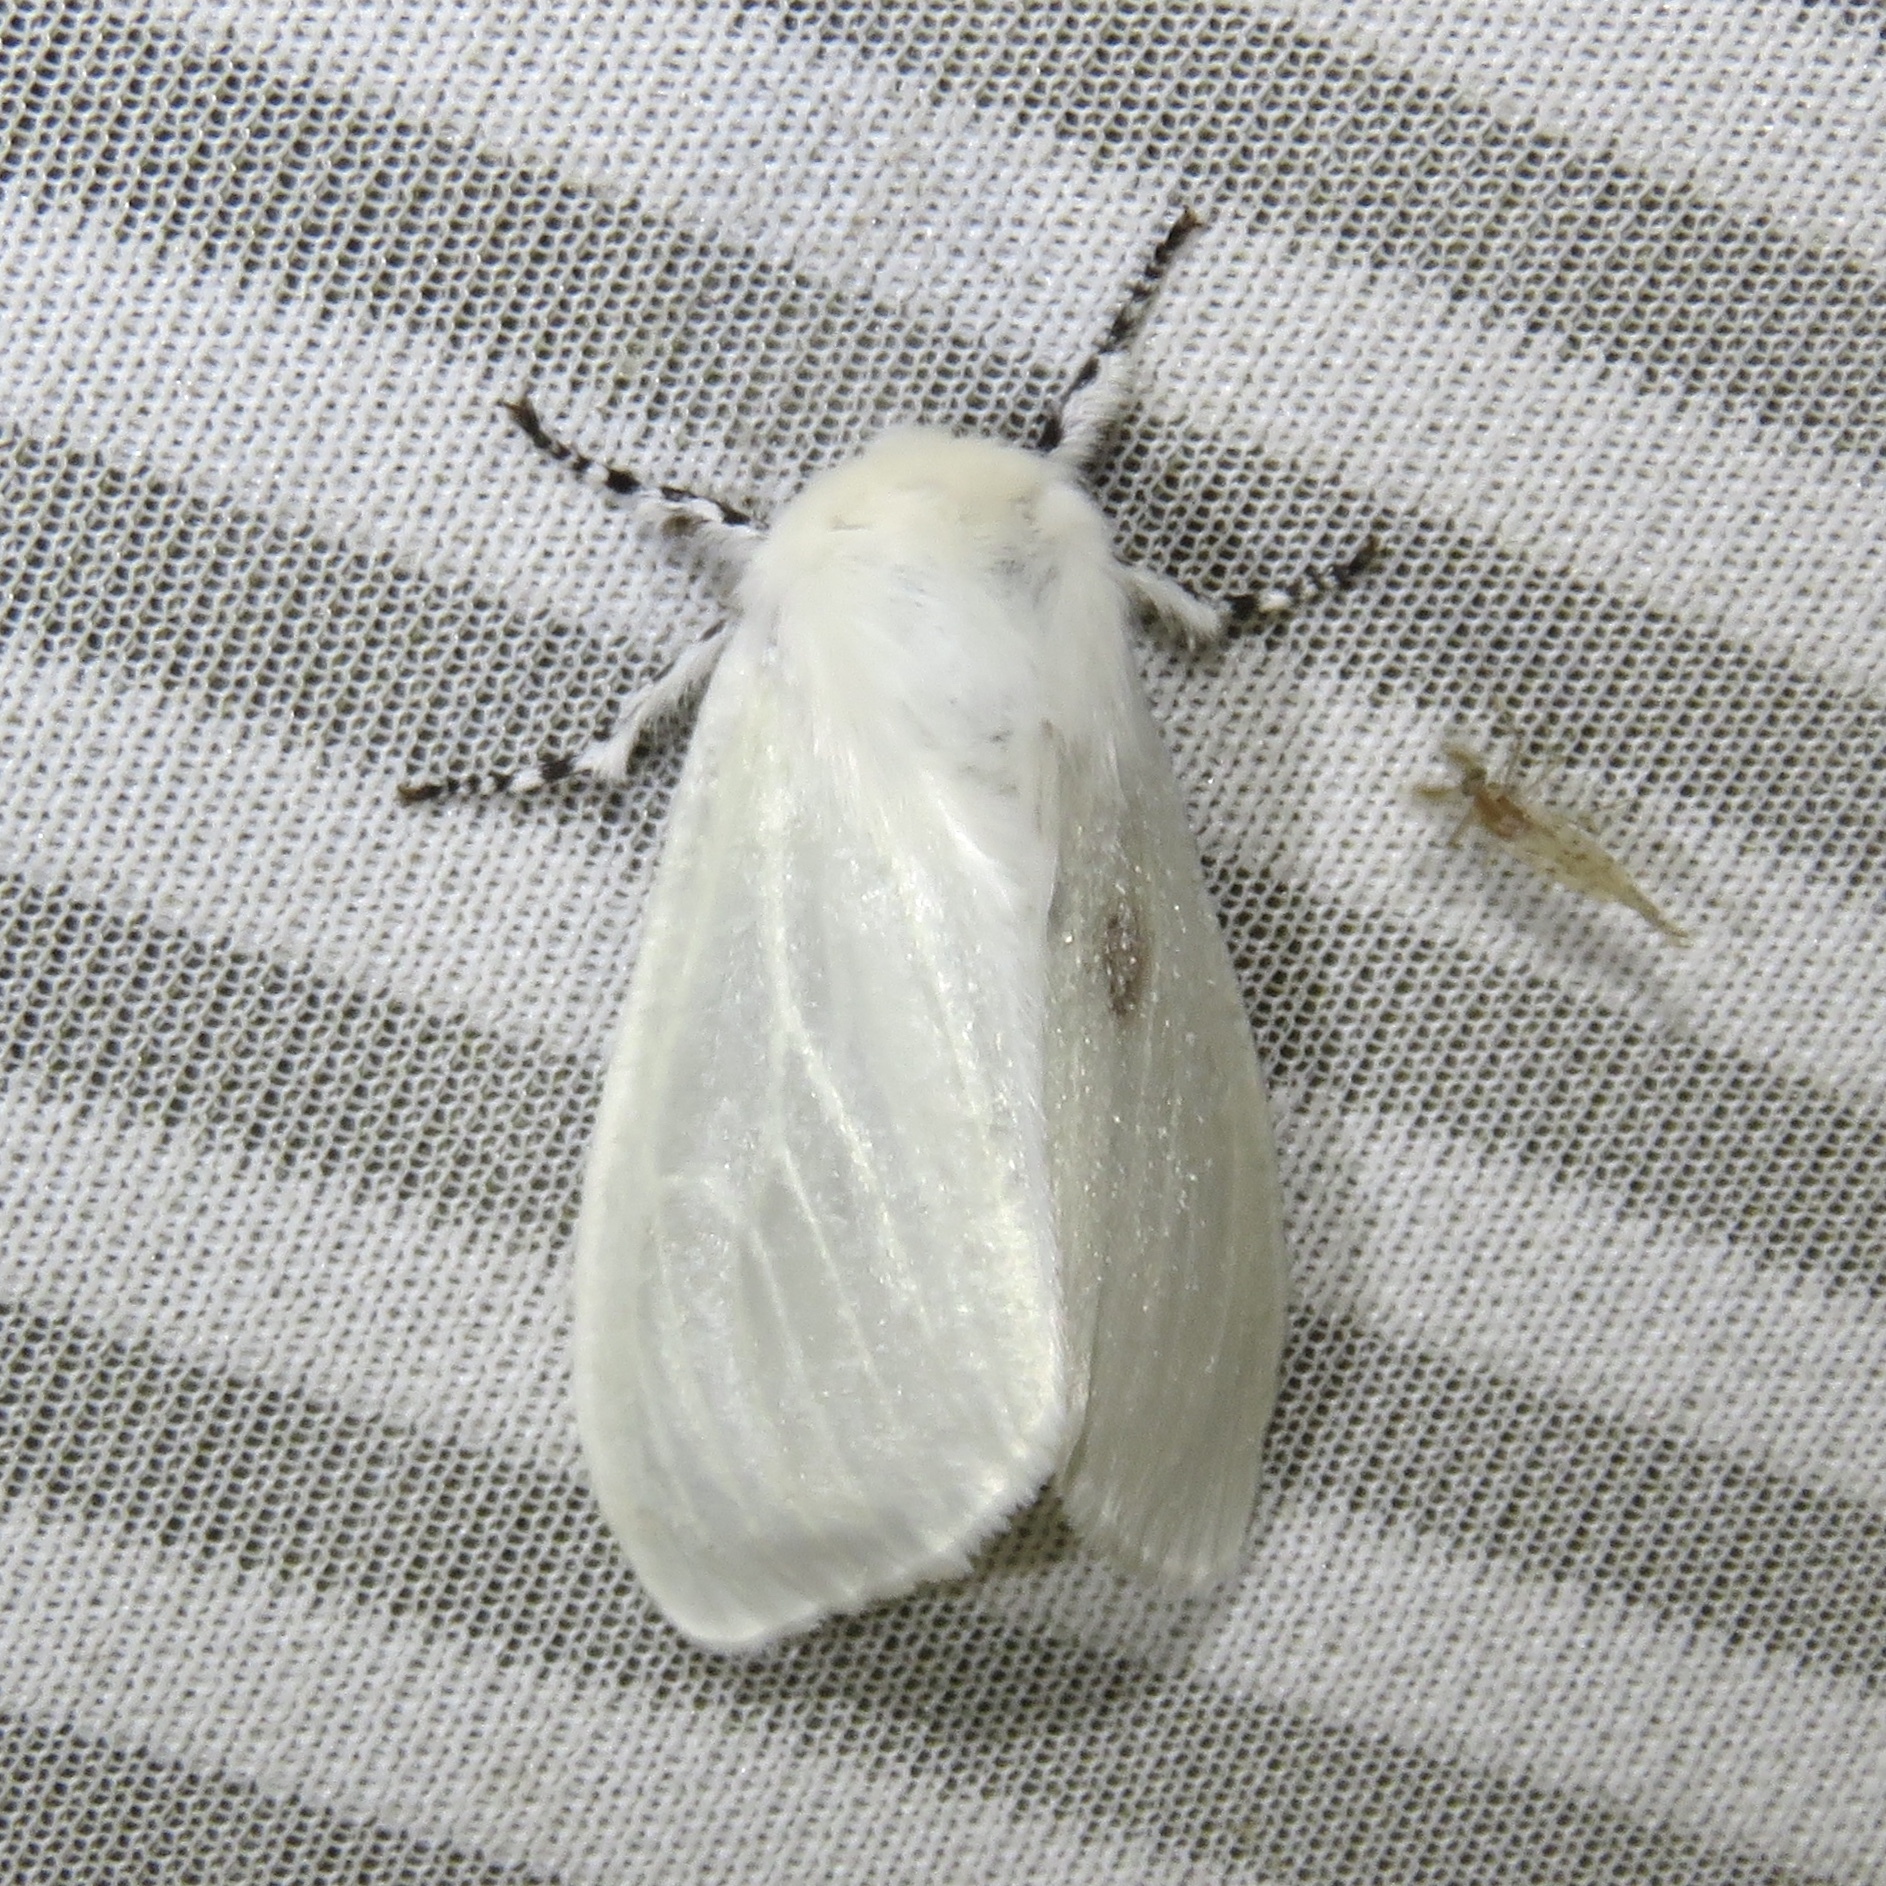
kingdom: Animalia
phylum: Arthropoda
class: Insecta
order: Lepidoptera
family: Erebidae
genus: Leucoma
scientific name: Leucoma salicis
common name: White satin moth
